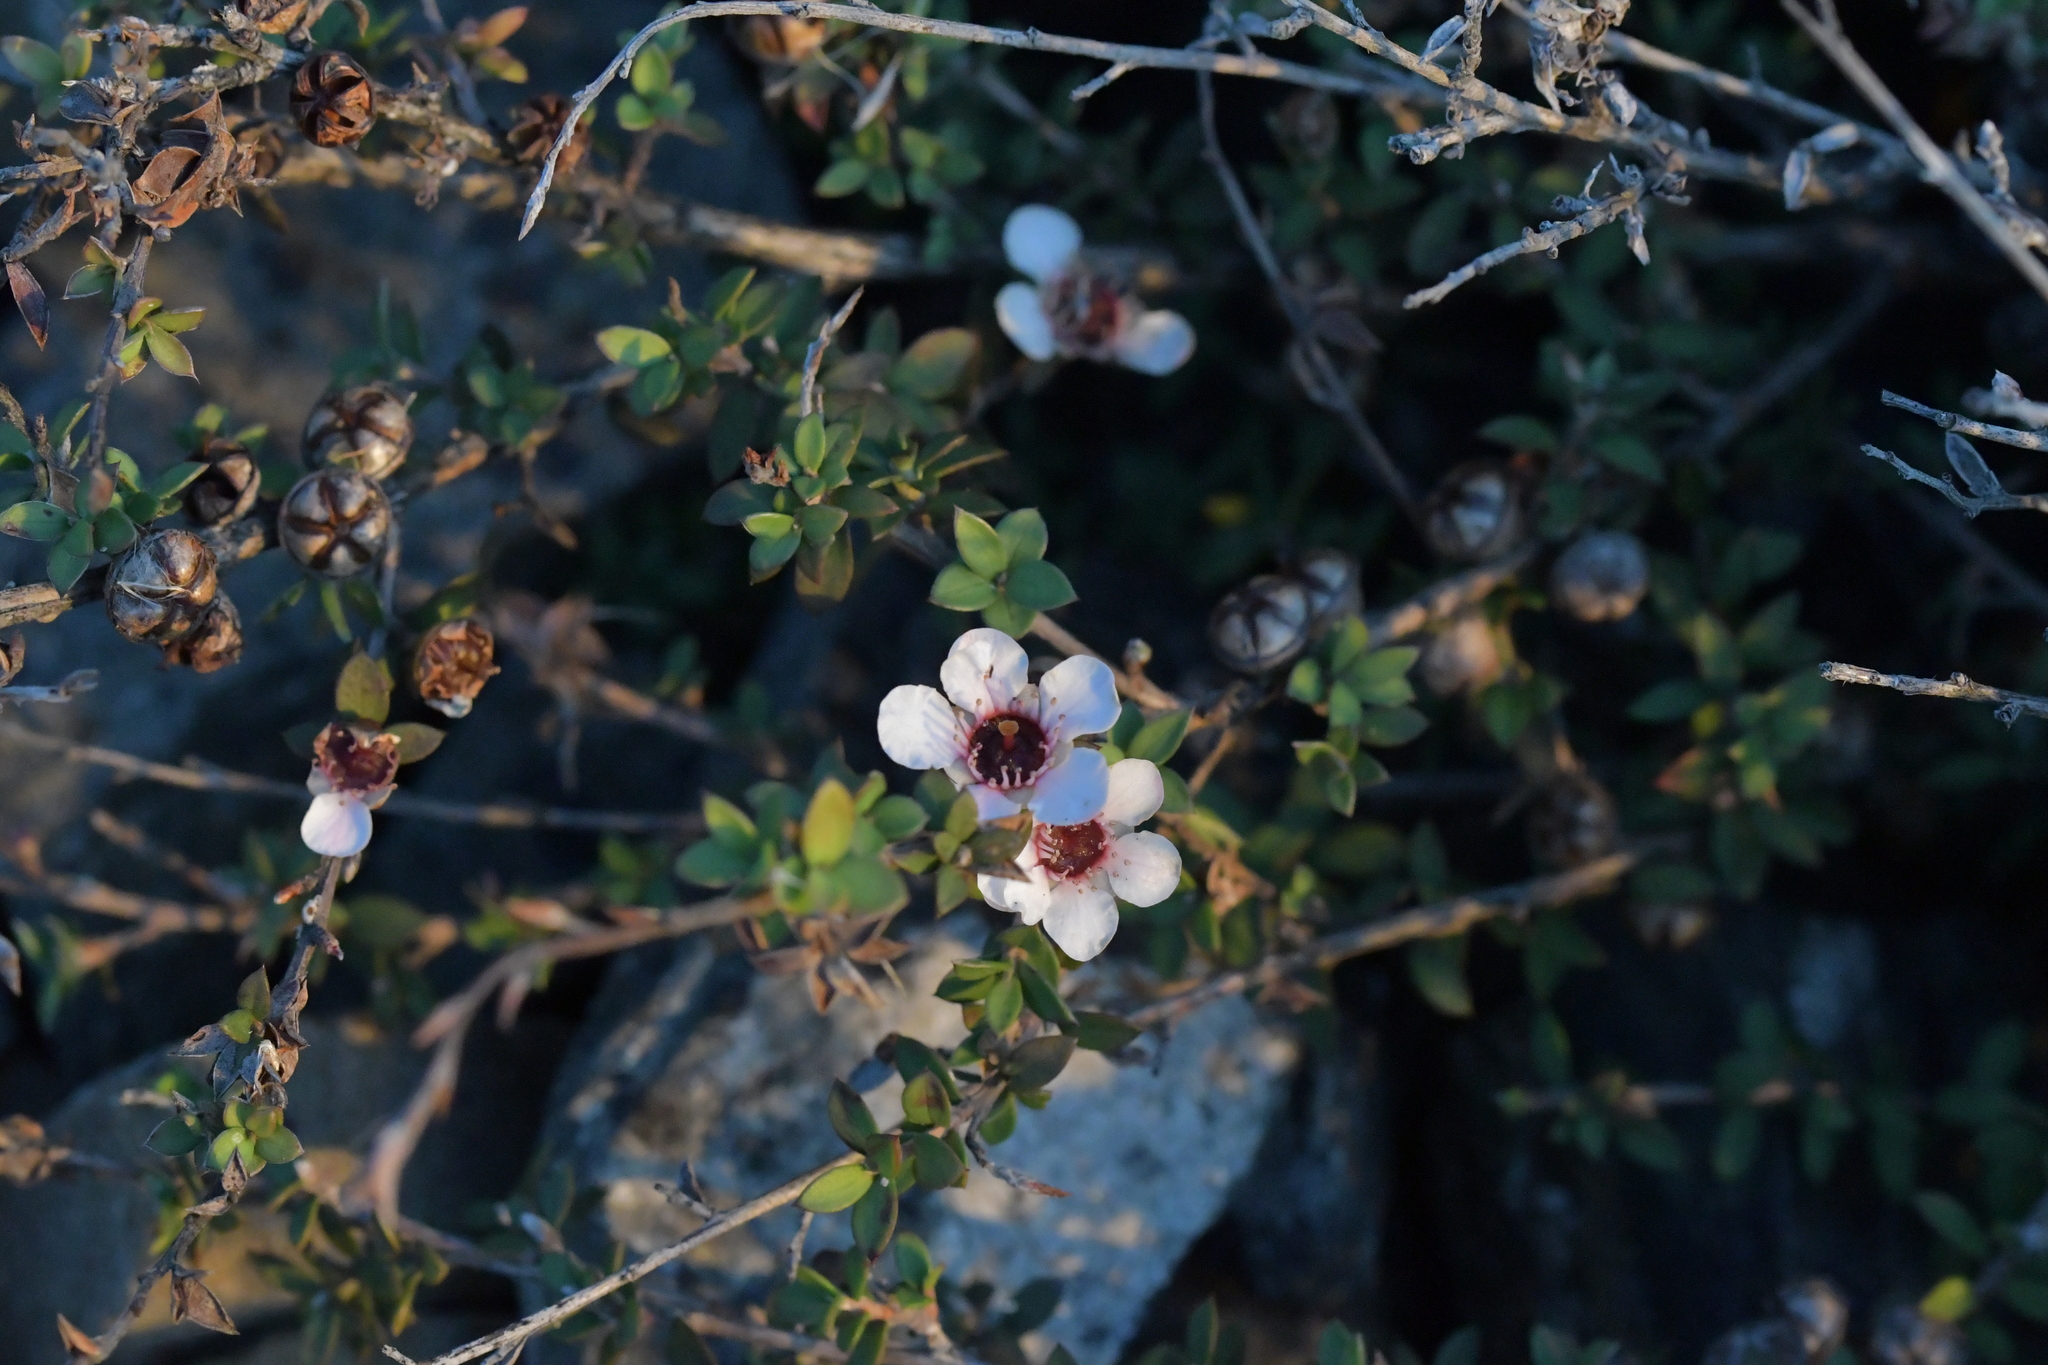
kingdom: Plantae
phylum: Tracheophyta
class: Magnoliopsida
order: Myrtales
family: Myrtaceae
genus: Leptospermum
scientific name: Leptospermum scoparium
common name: Broom tea-tree
